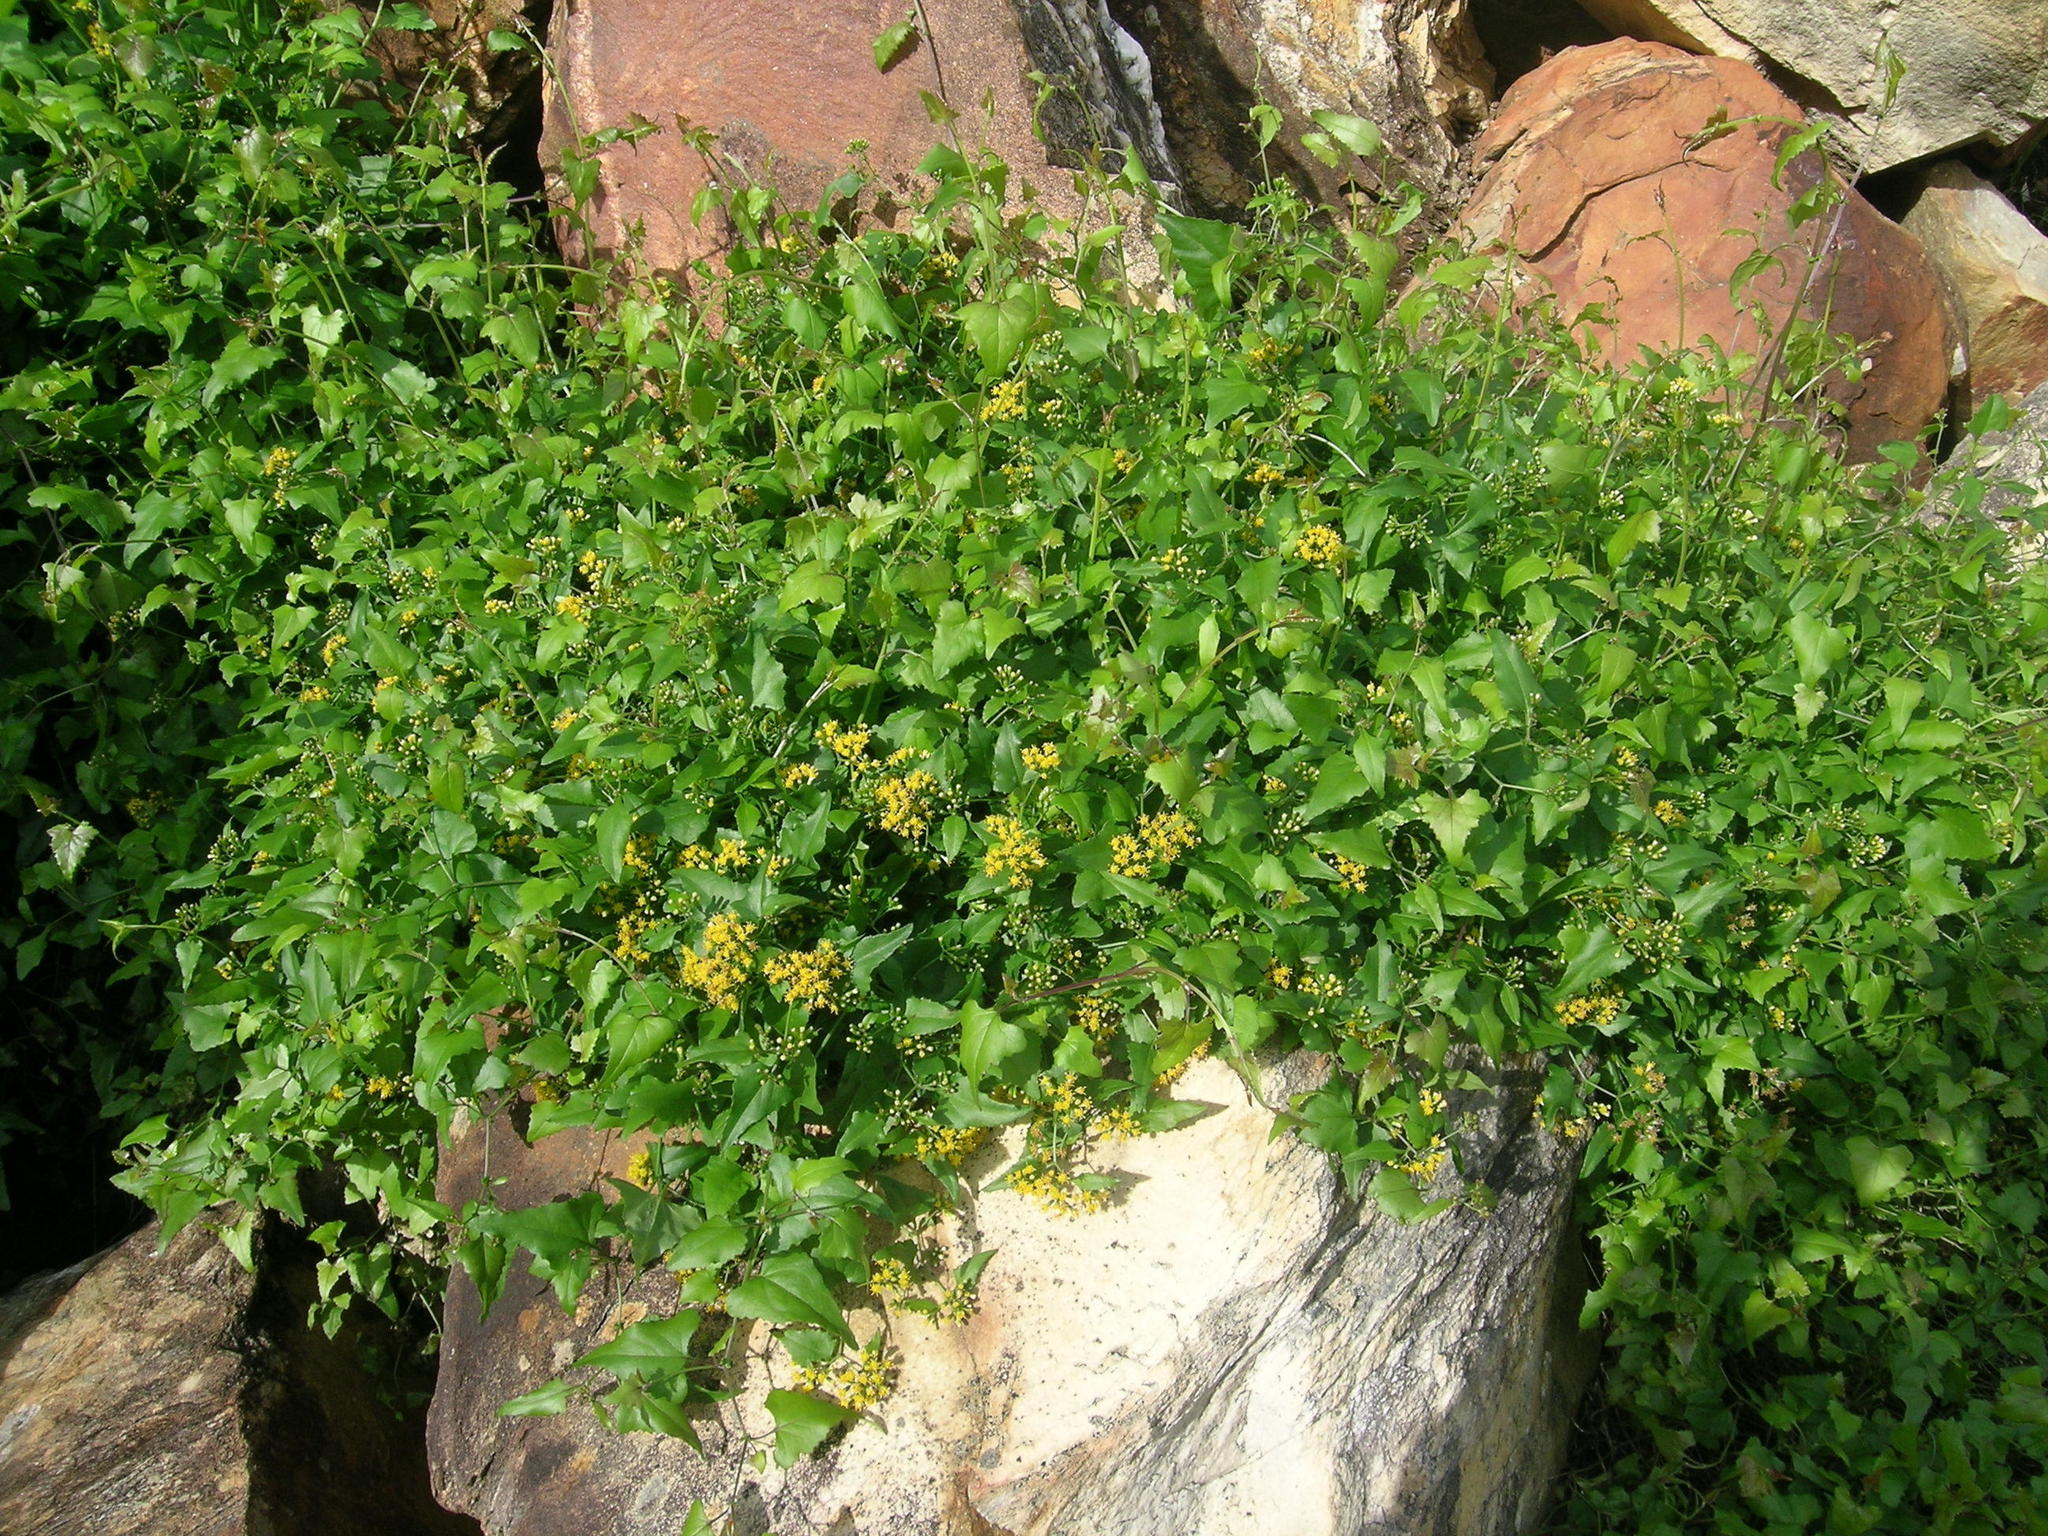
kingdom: Plantae
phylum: Tracheophyta
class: Magnoliopsida
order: Asterales
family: Asteraceae
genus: Senecio
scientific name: Senecio deltoideus
